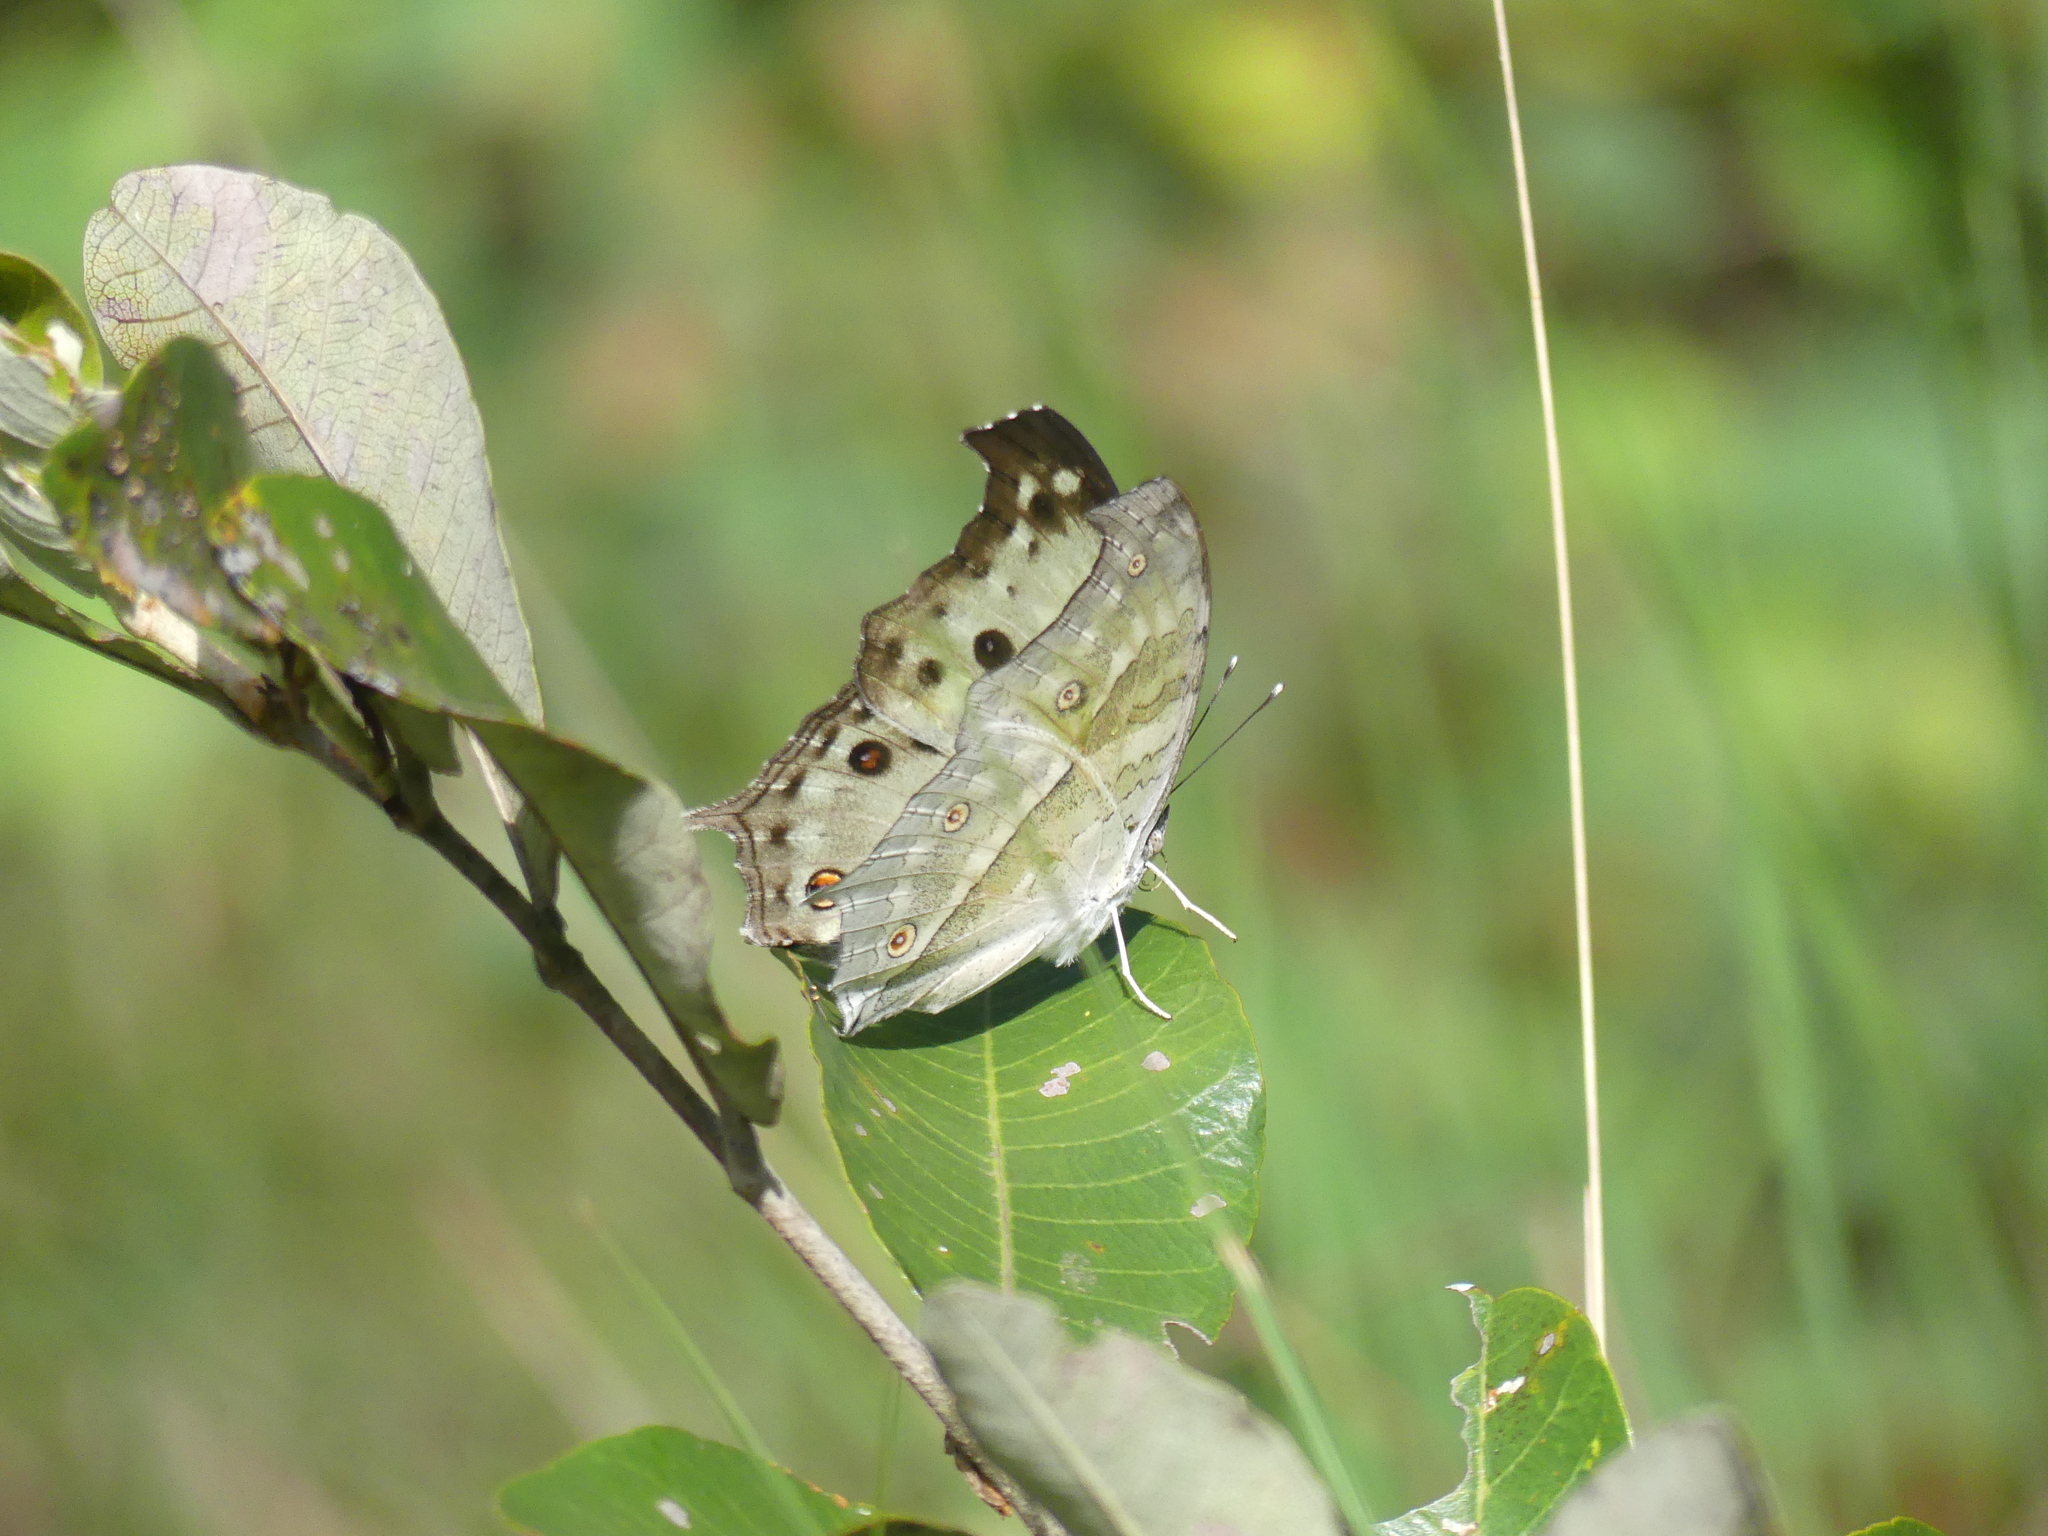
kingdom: Animalia
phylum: Arthropoda
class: Insecta
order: Lepidoptera
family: Nymphalidae
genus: Salamis
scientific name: Salamis Protogoniomorpha parhassus
